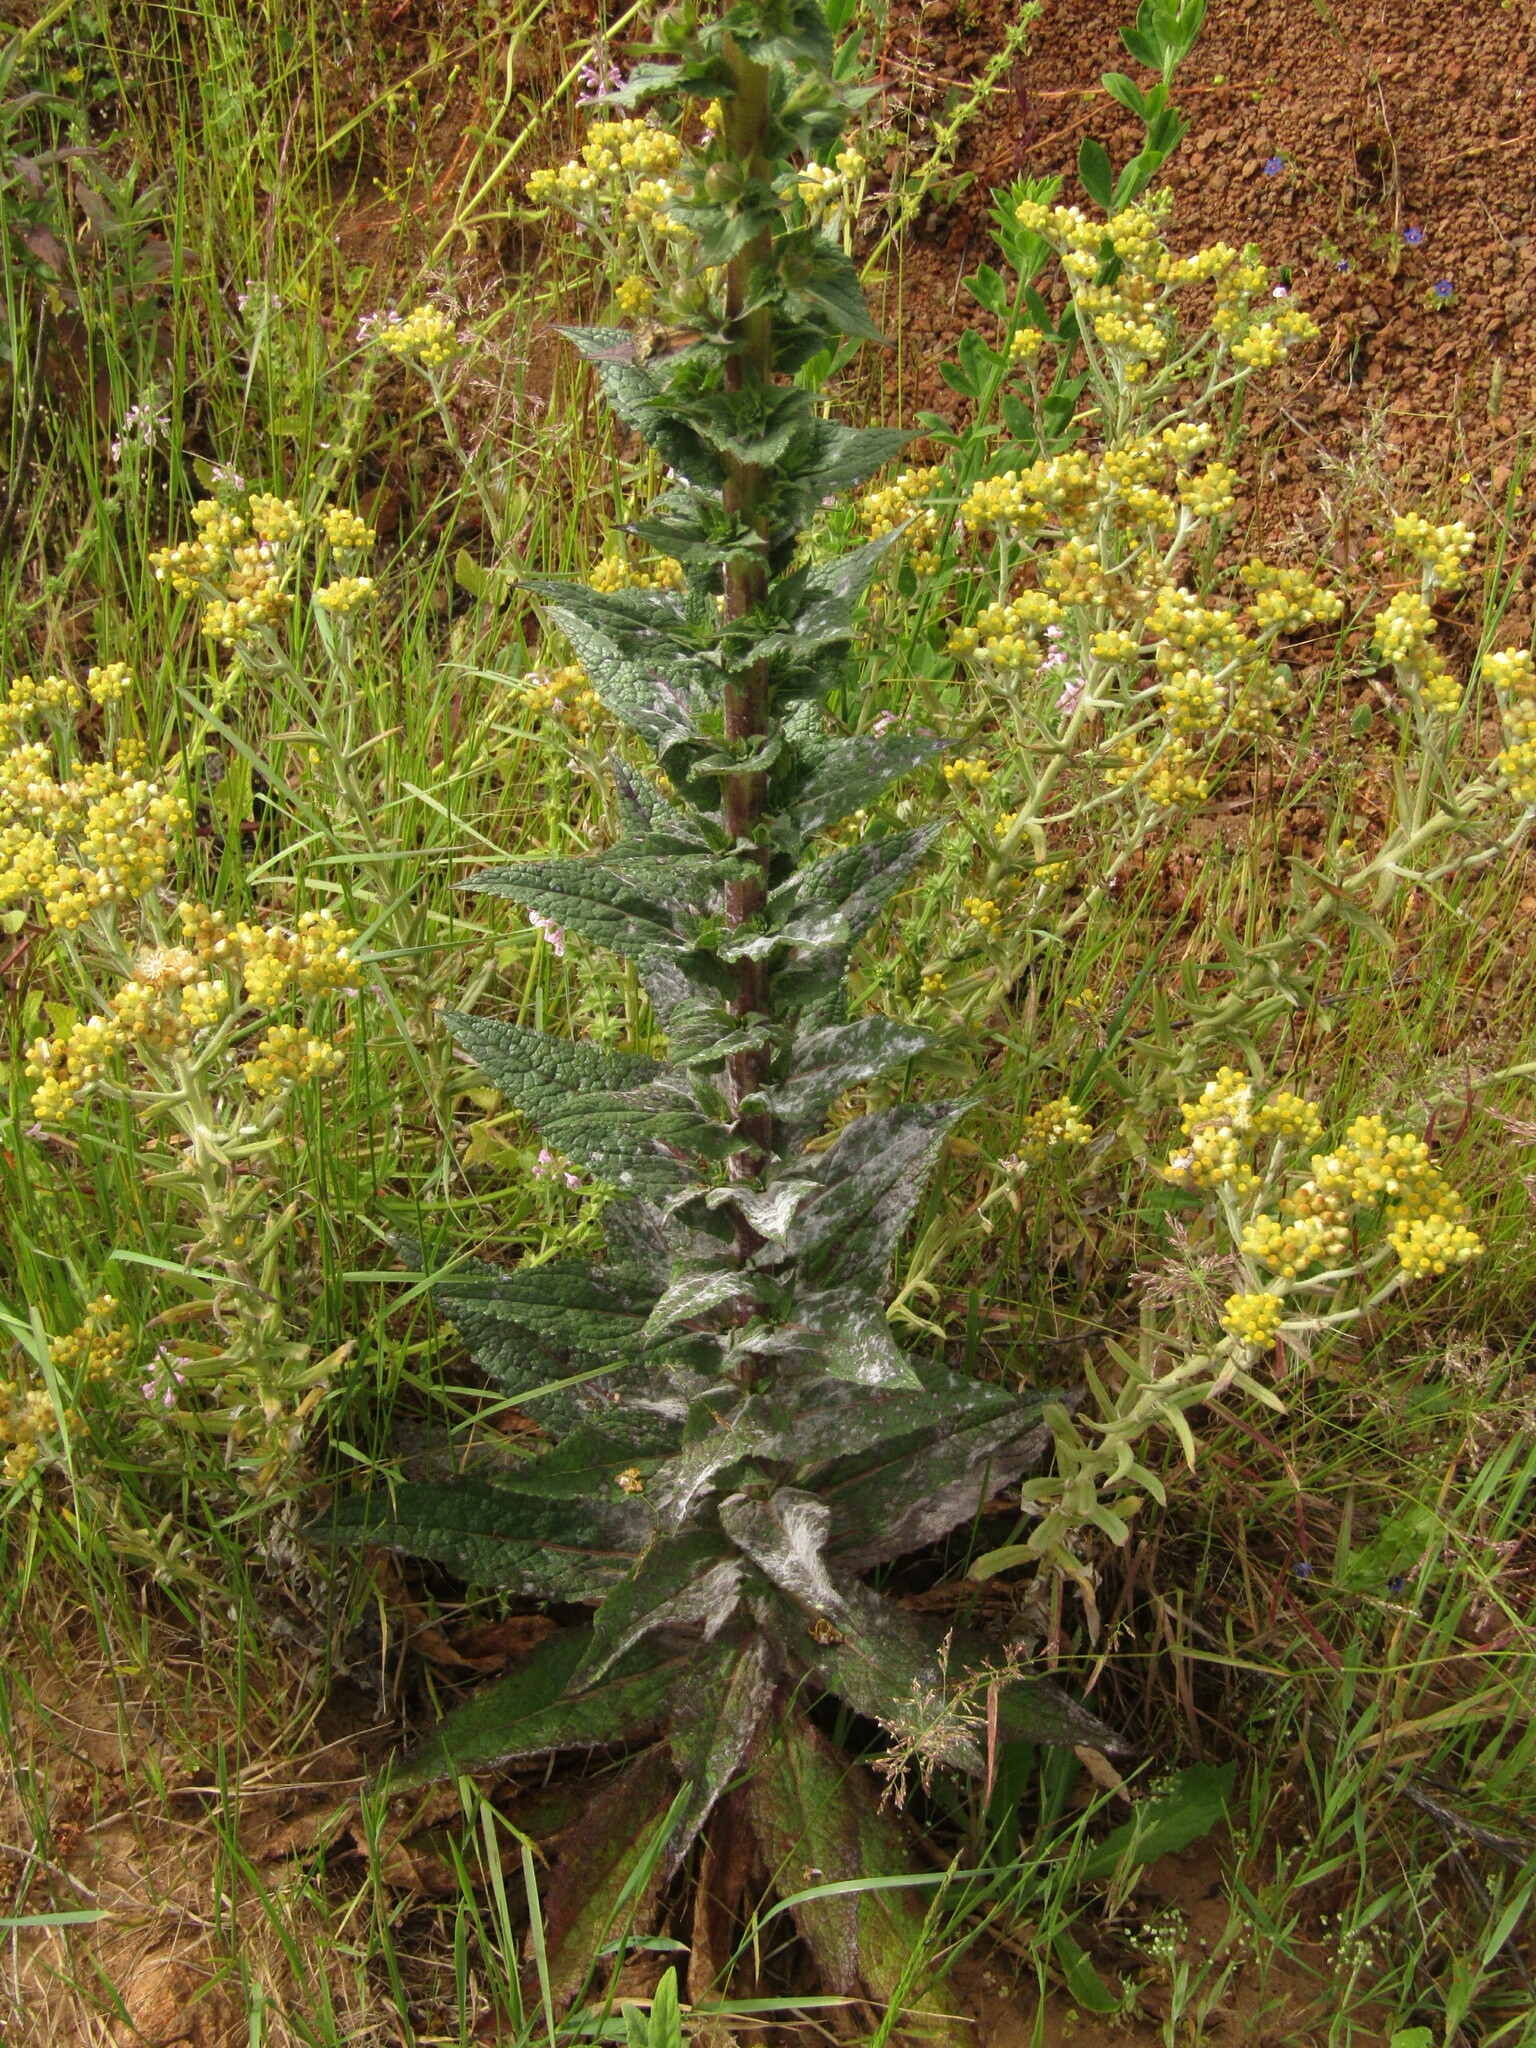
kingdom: Plantae
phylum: Tracheophyta
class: Magnoliopsida
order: Lamiales
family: Scrophulariaceae
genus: Verbascum
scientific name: Verbascum virgatum
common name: Twiggy mullein
